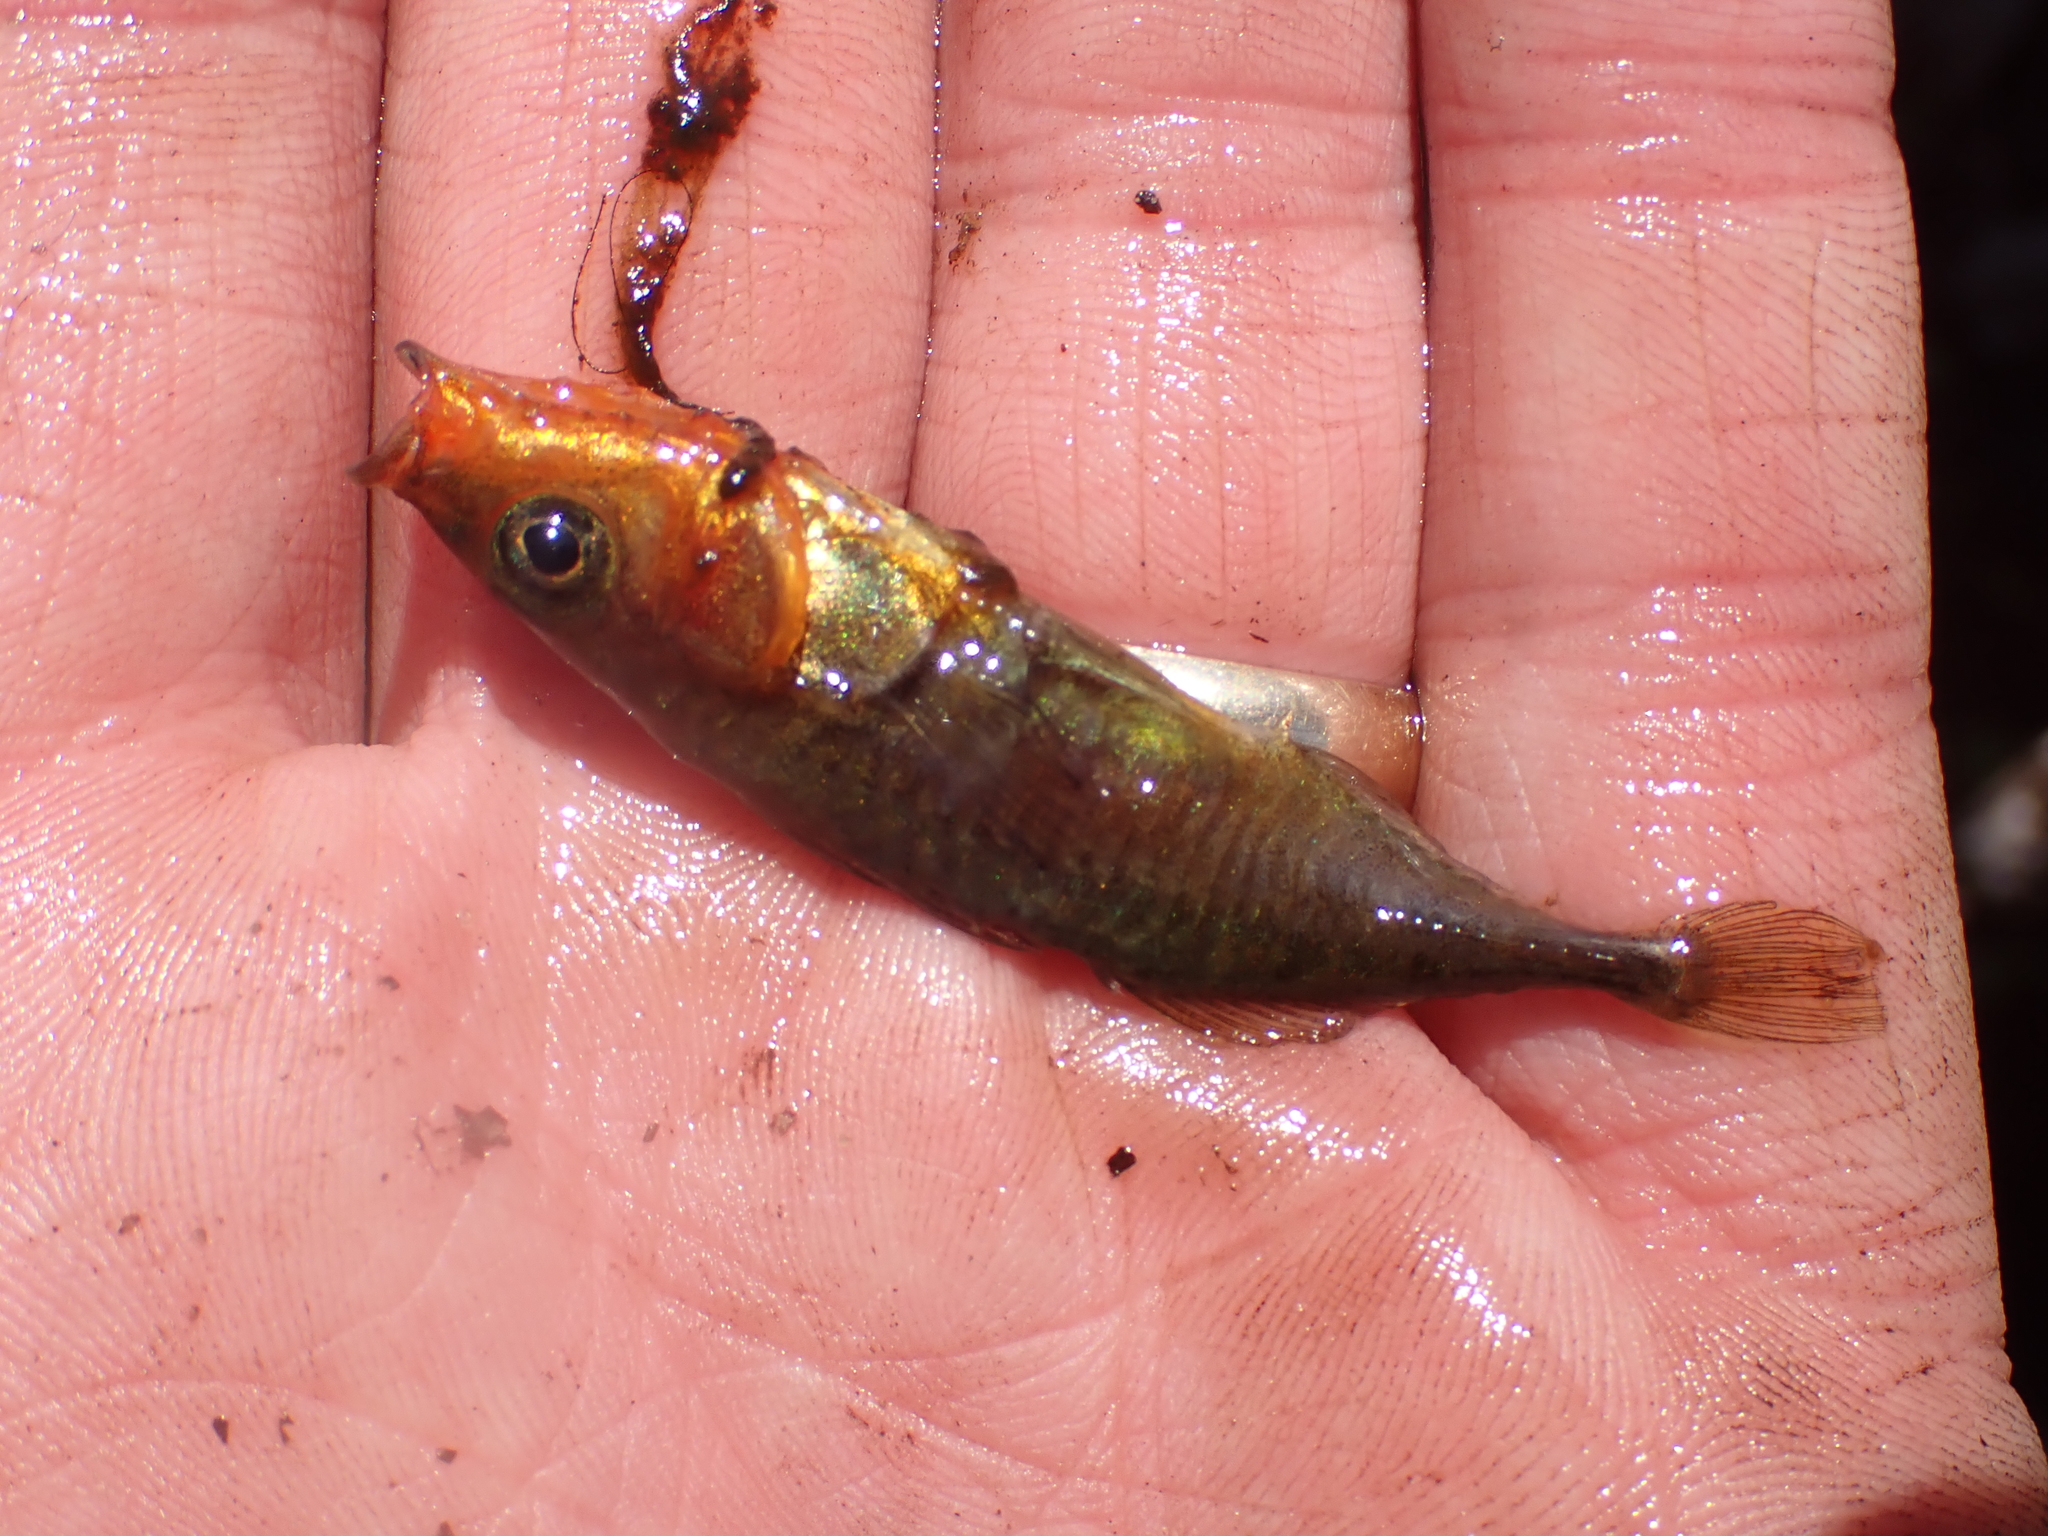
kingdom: Animalia
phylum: Chordata
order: Gasterosteiformes
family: Gasterosteidae
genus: Gasterosteus
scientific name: Gasterosteus aculeatus
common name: Three-spined stickleback
